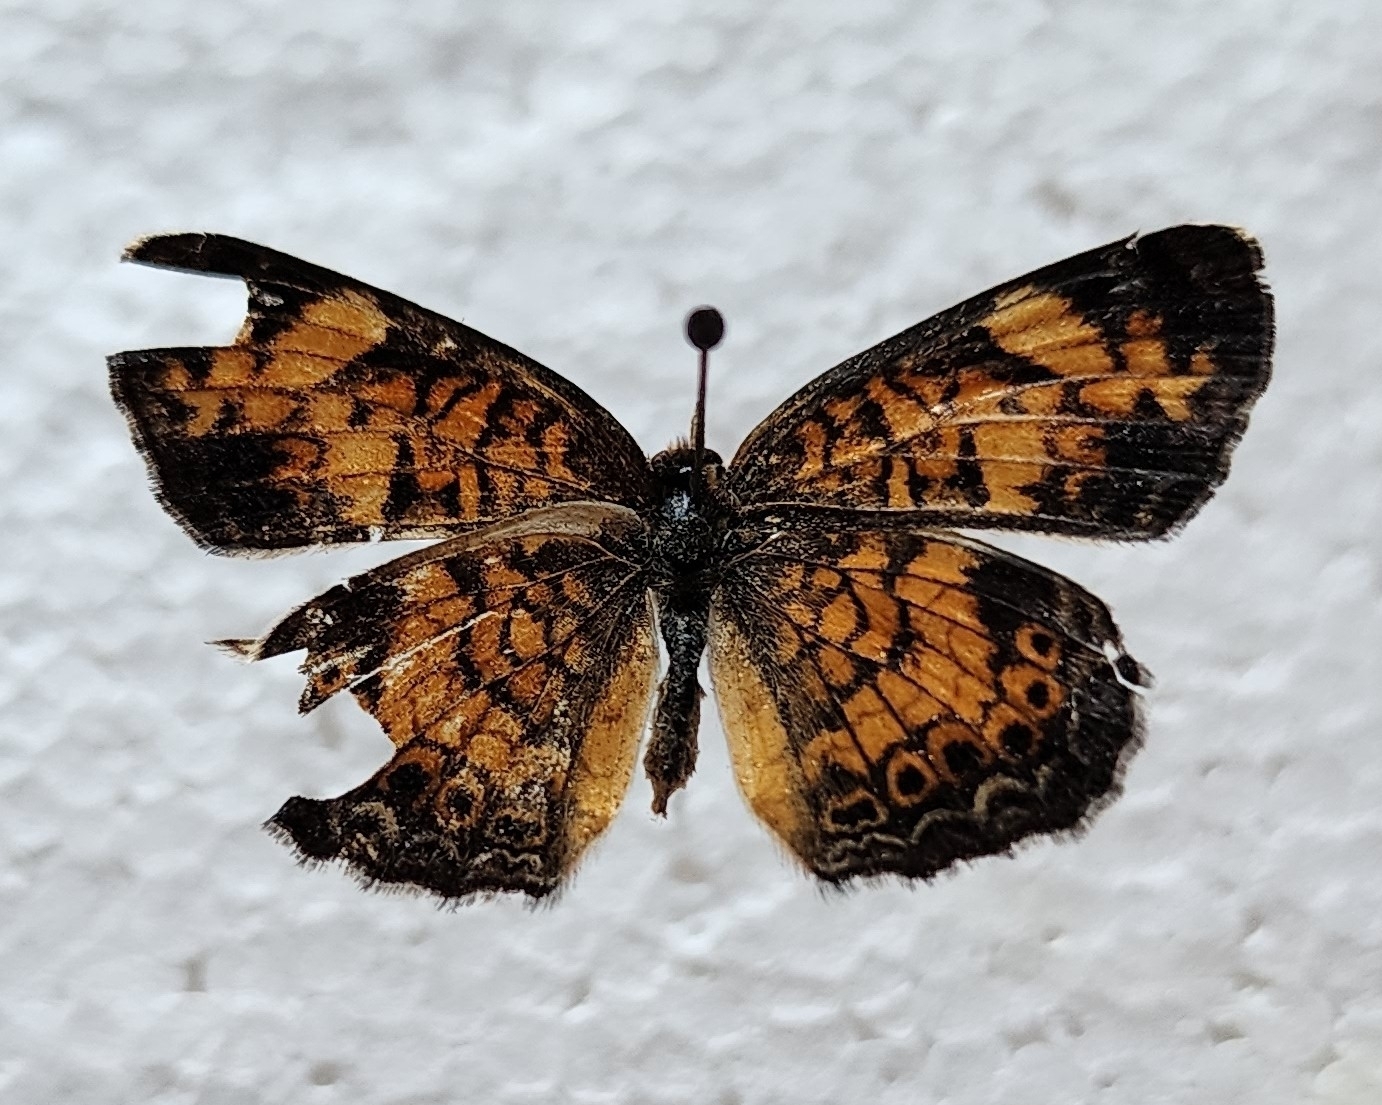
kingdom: Animalia
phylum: Arthropoda
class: Insecta
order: Lepidoptera
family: Nymphalidae
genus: Phyciodes
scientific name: Phyciodes tharos
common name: Pearl crescent
